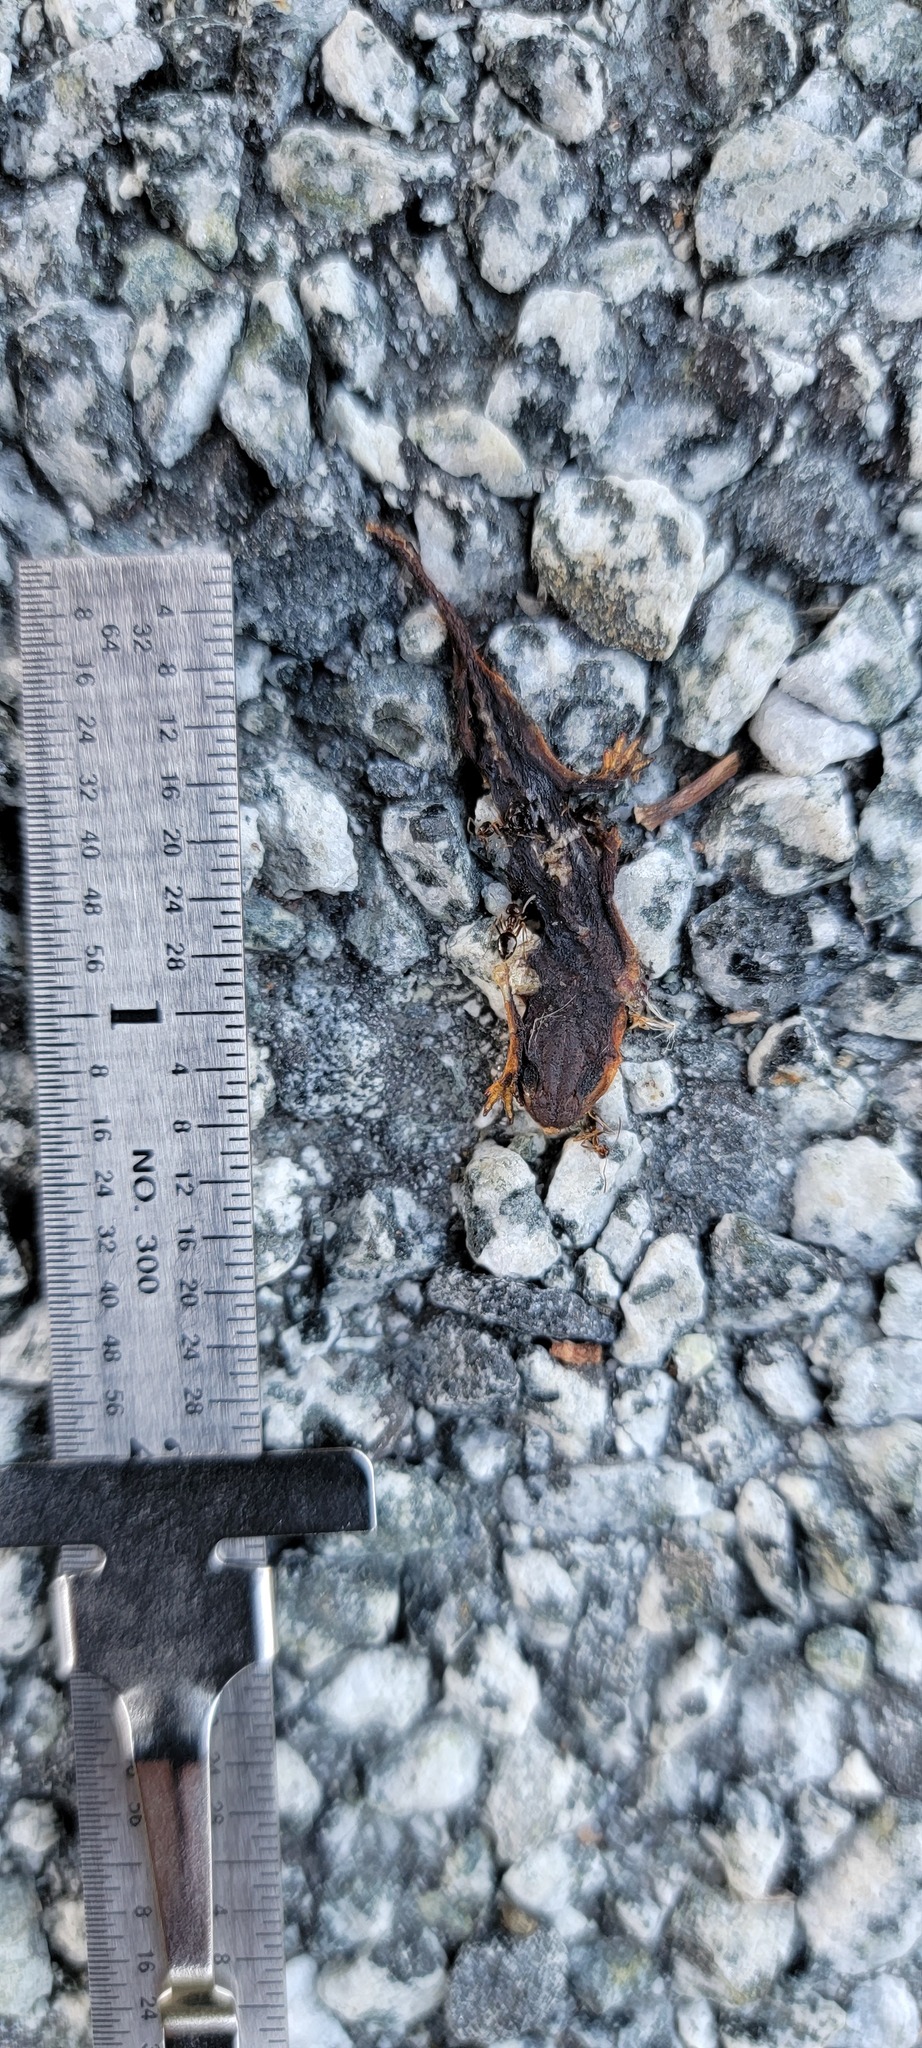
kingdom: Animalia
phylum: Chordata
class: Amphibia
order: Caudata
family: Salamandridae
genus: Taricha
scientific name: Taricha
